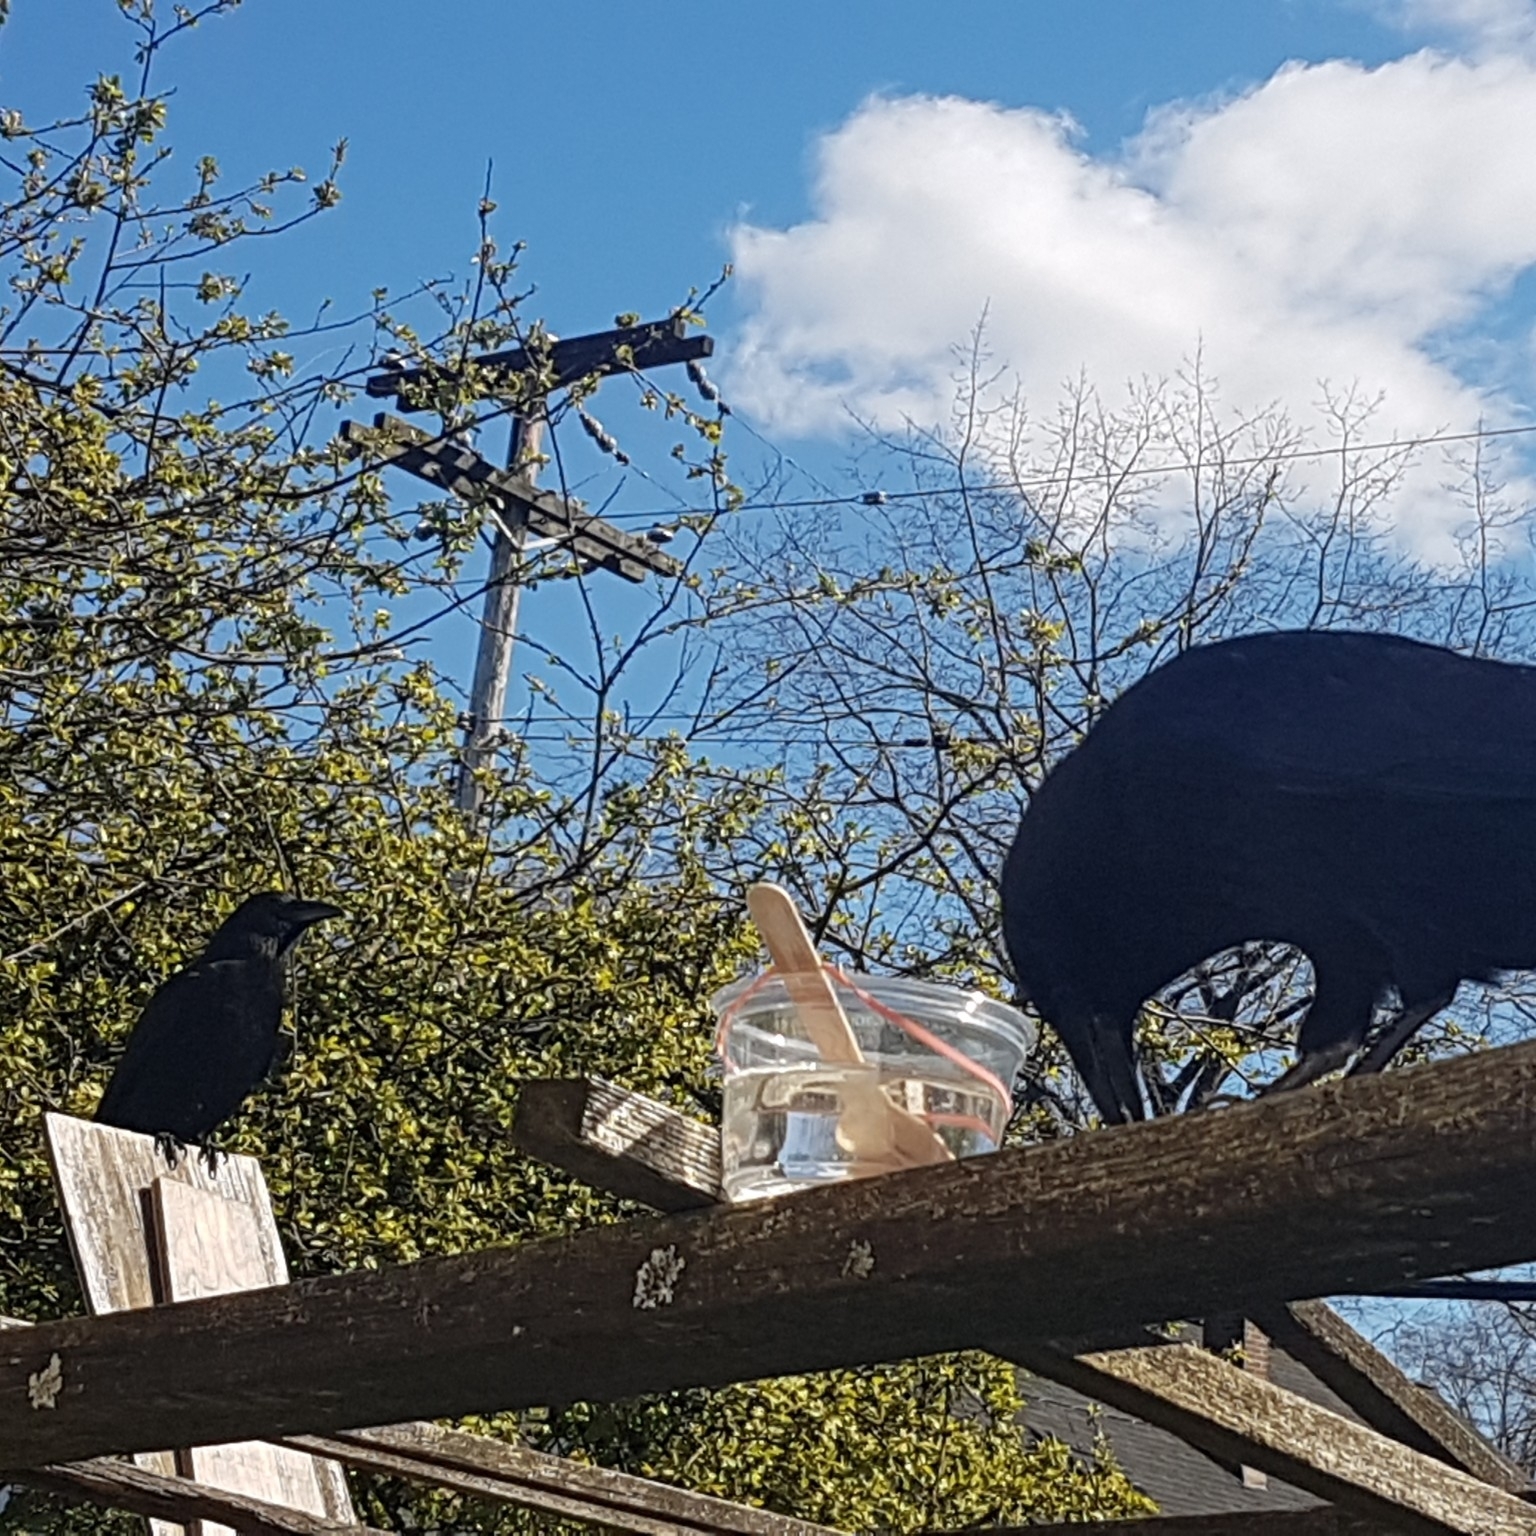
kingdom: Animalia
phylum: Chordata
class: Aves
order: Passeriformes
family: Corvidae
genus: Corvus
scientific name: Corvus brachyrhynchos
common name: American crow
